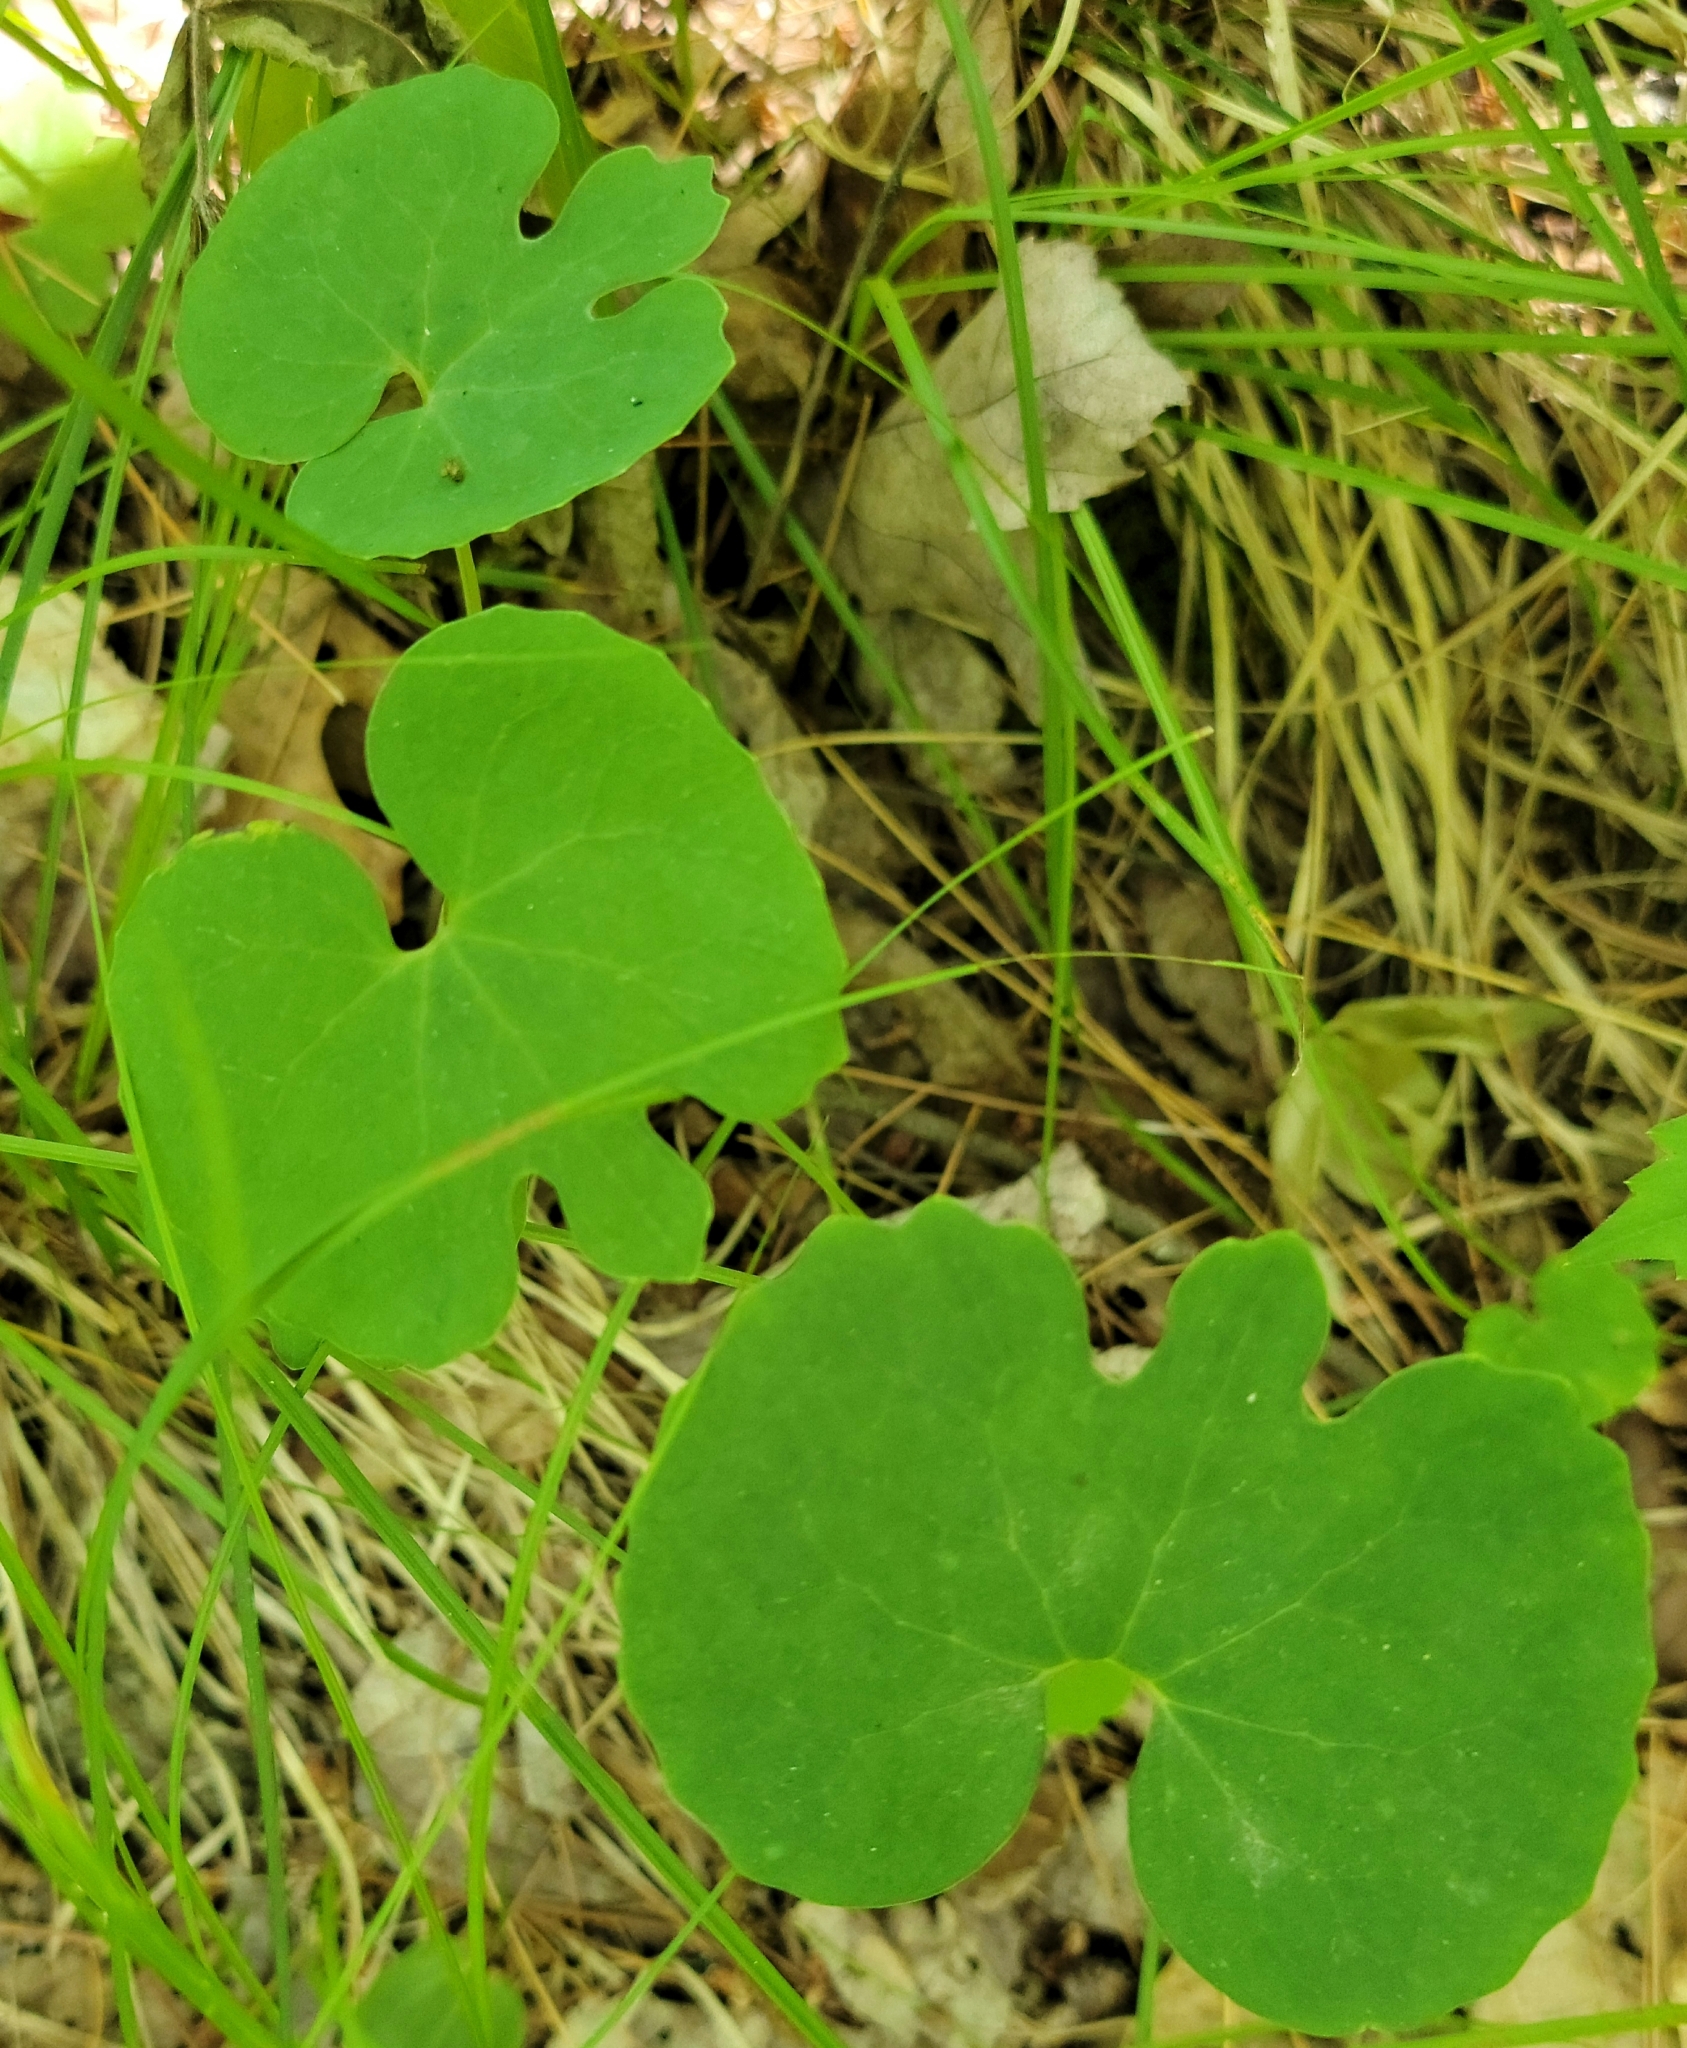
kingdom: Plantae
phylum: Tracheophyta
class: Magnoliopsida
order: Ranunculales
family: Papaveraceae
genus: Sanguinaria
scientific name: Sanguinaria canadensis
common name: Bloodroot
